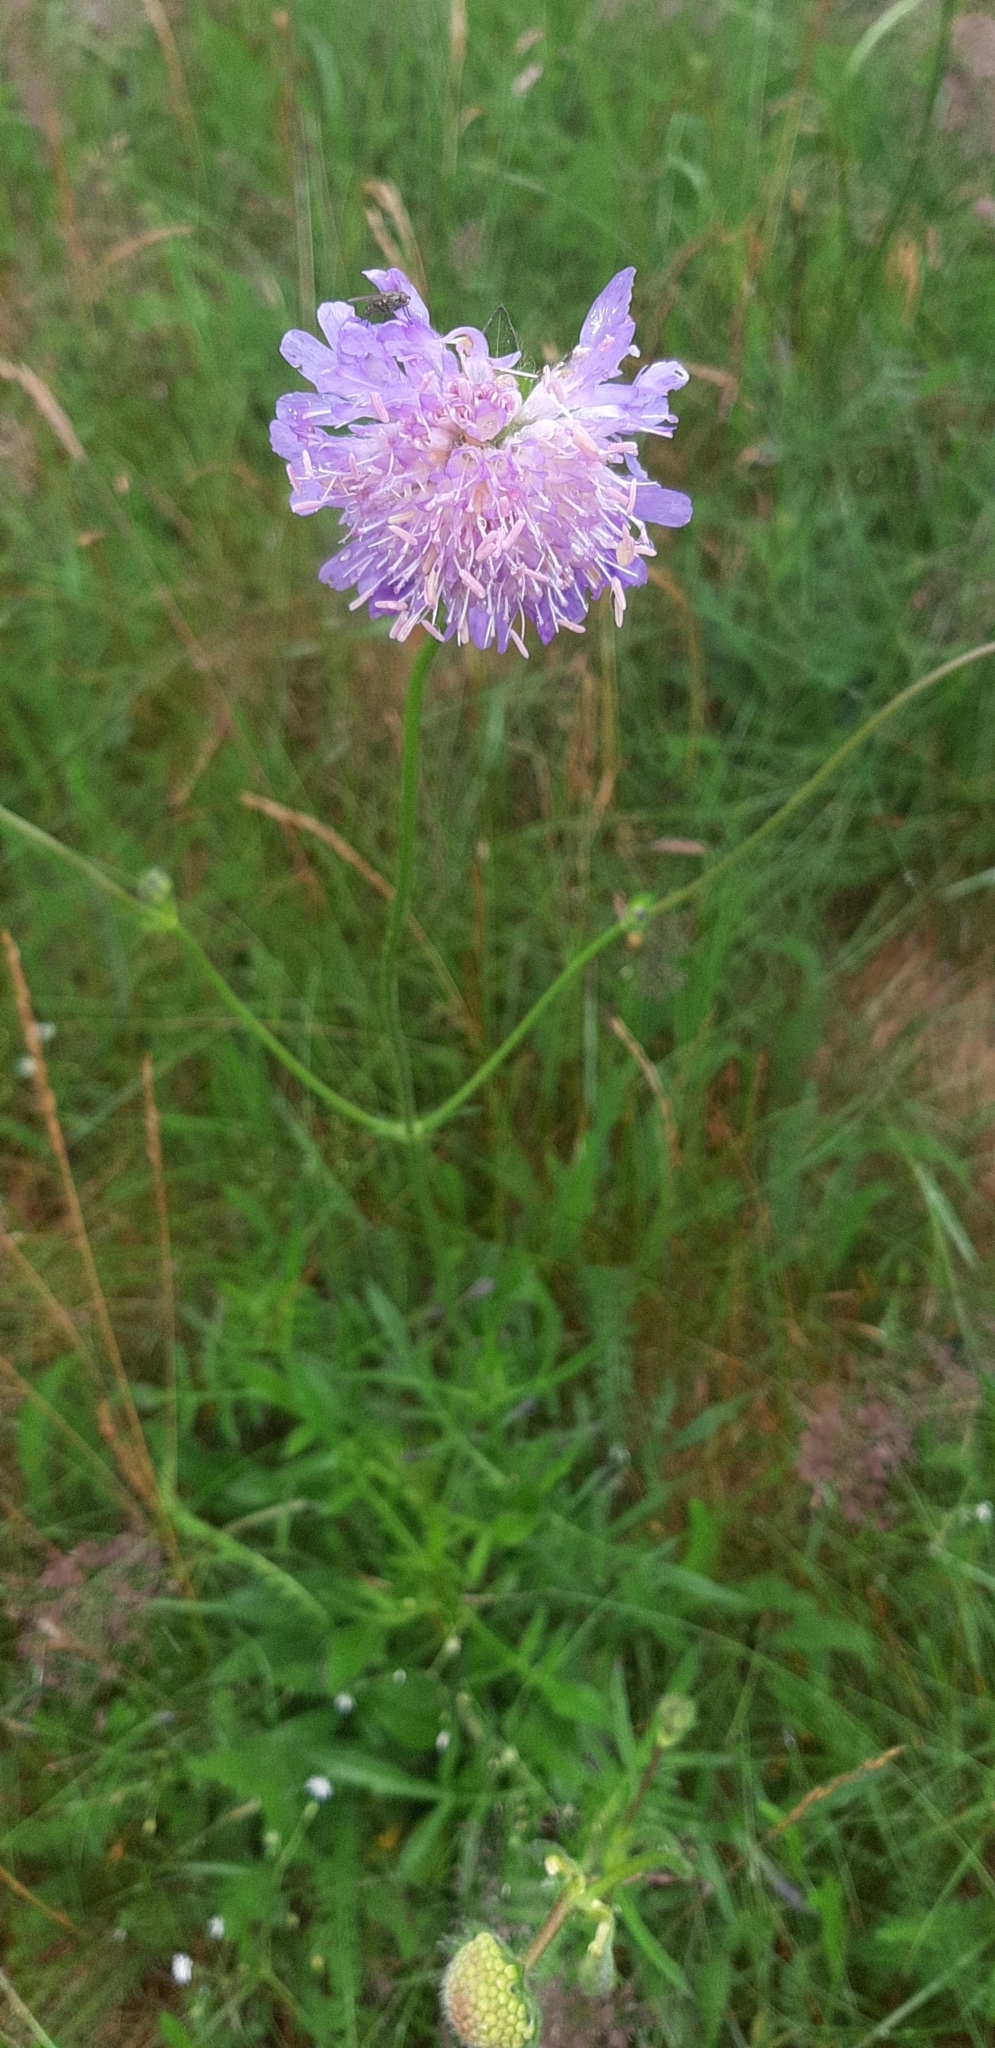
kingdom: Plantae
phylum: Tracheophyta
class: Magnoliopsida
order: Dipsacales
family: Caprifoliaceae
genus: Knautia
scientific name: Knautia arvensis
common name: Field scabiosa
